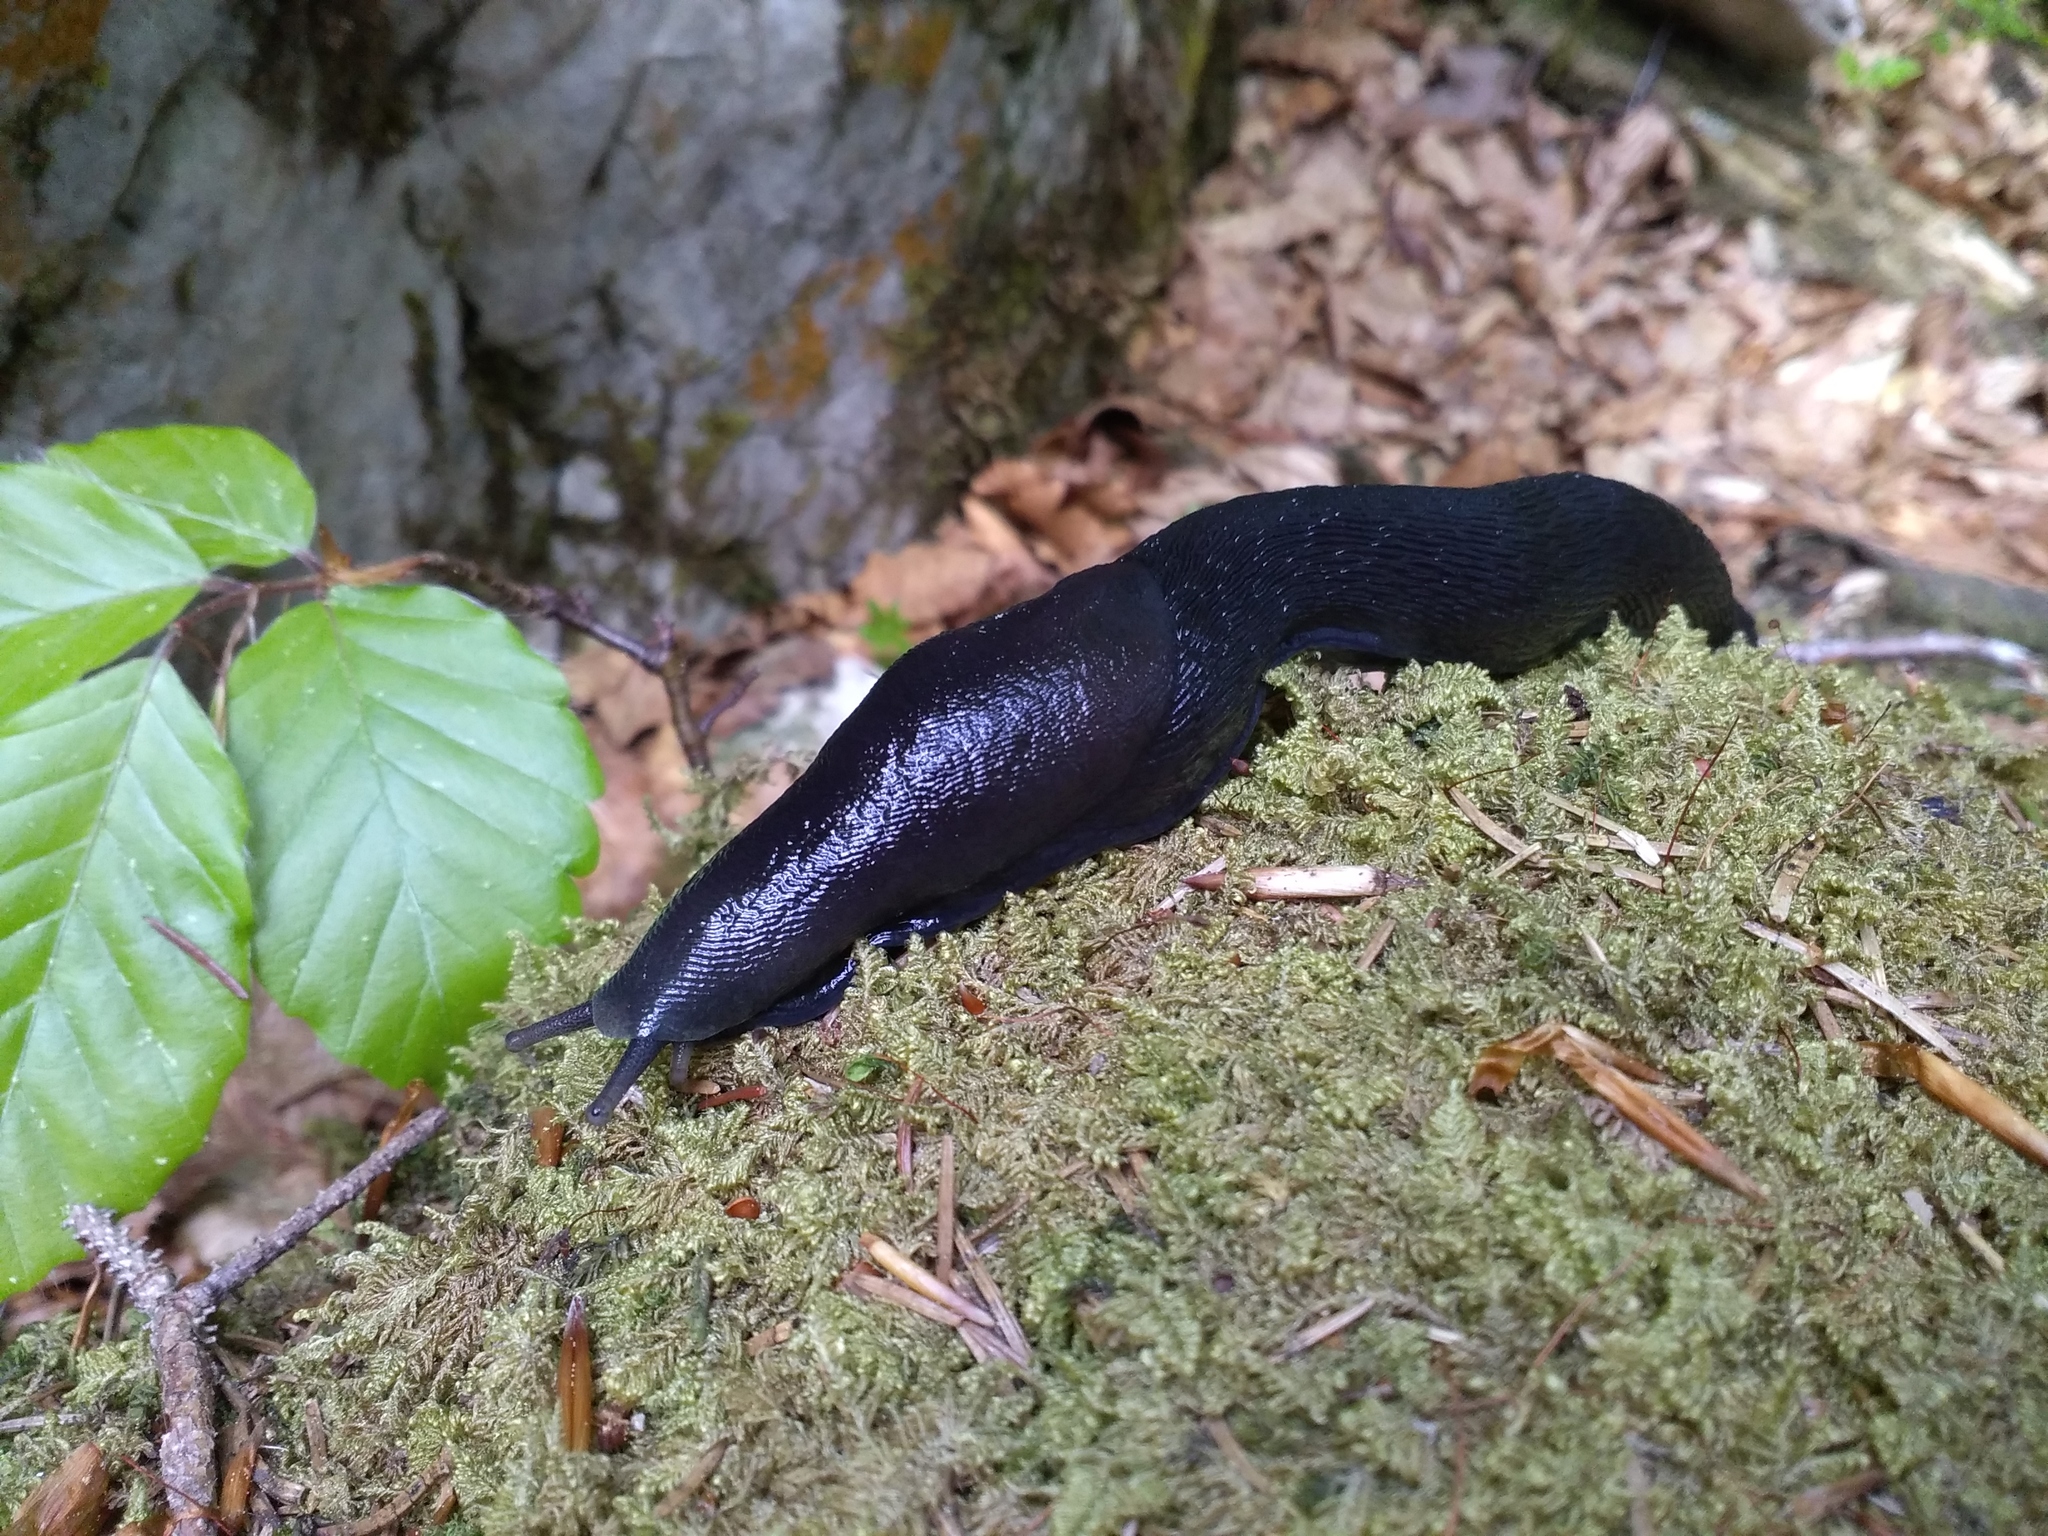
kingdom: Animalia
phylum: Mollusca
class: Gastropoda
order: Stylommatophora
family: Limacidae
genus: Limax
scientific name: Limax cinereoniger
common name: Ash-black slug
